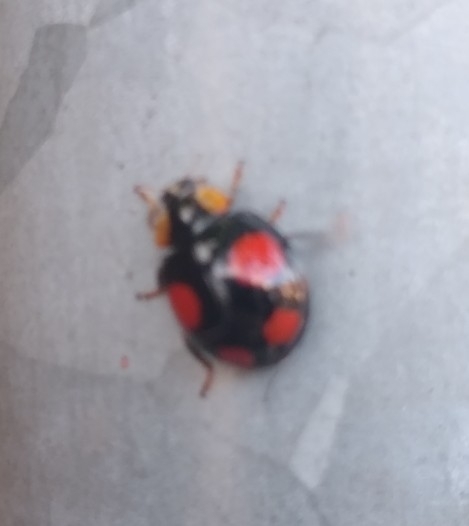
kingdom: Animalia
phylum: Arthropoda
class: Insecta
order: Coleoptera
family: Coccinellidae
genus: Harmonia
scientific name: Harmonia axyridis
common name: Harlequin ladybird
